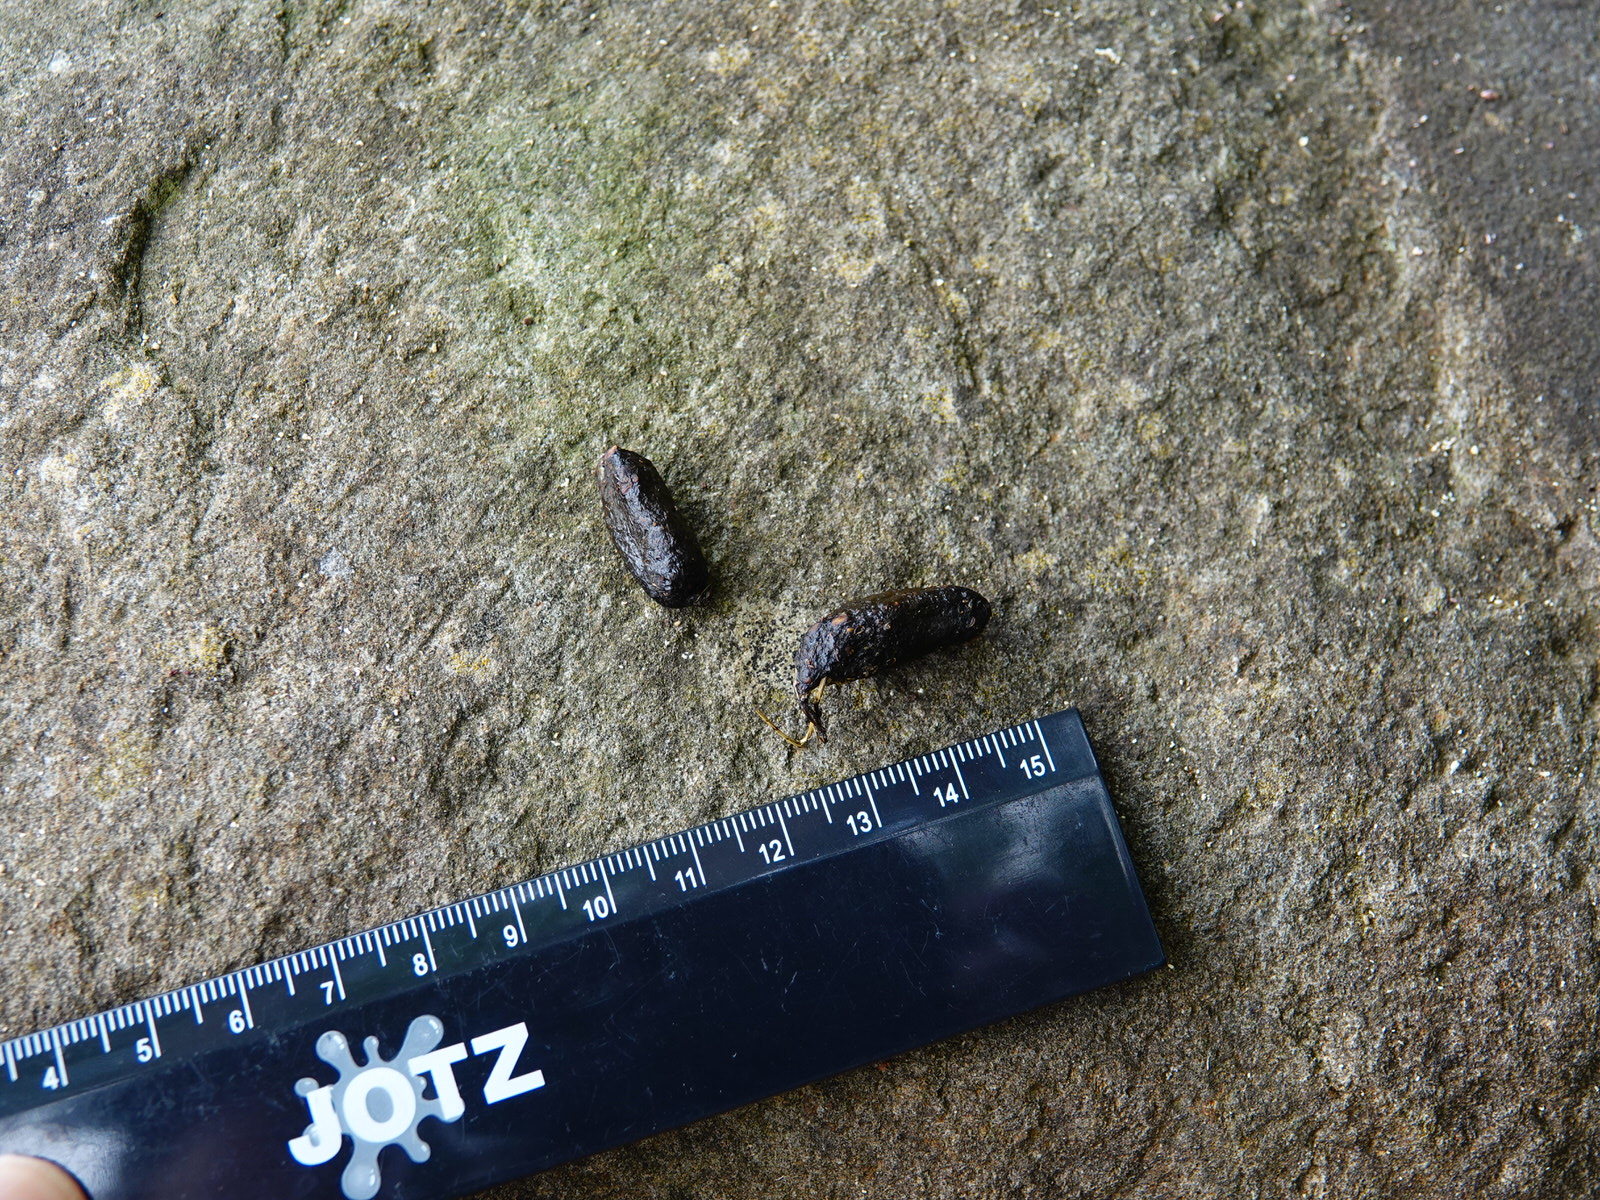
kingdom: Animalia
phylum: Chordata
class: Mammalia
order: Diprotodontia
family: Phalangeridae
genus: Trichosurus
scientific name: Trichosurus vulpecula
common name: Common brushtail
